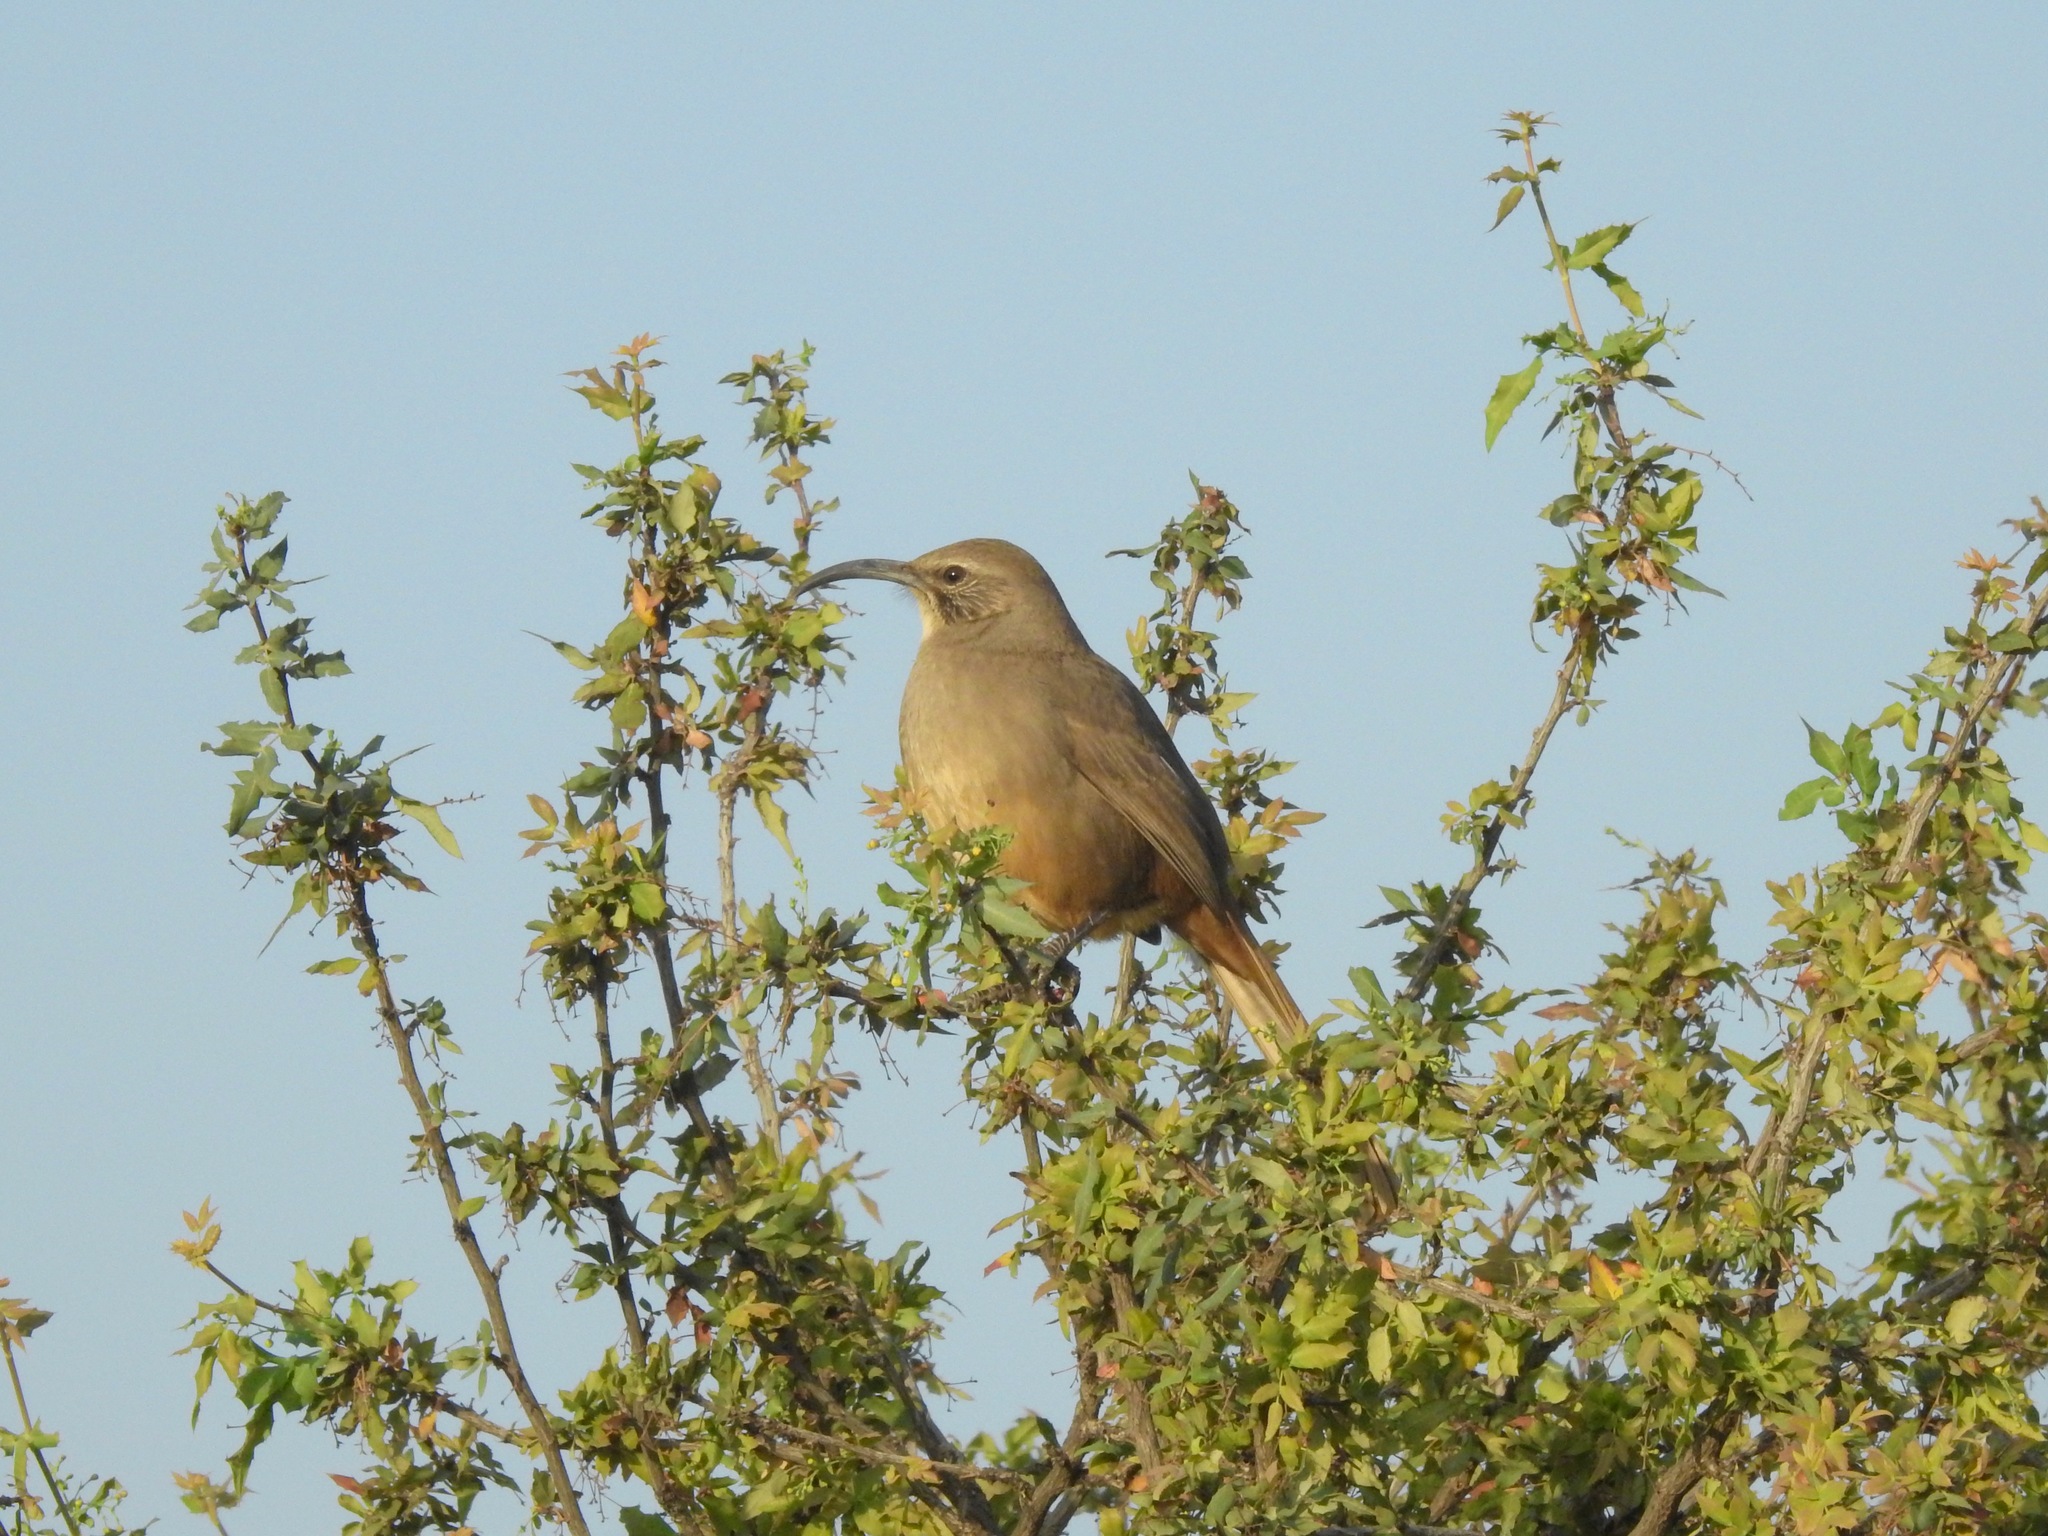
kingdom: Animalia
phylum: Chordata
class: Aves
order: Passeriformes
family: Mimidae
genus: Toxostoma
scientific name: Toxostoma redivivum
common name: California thrasher
